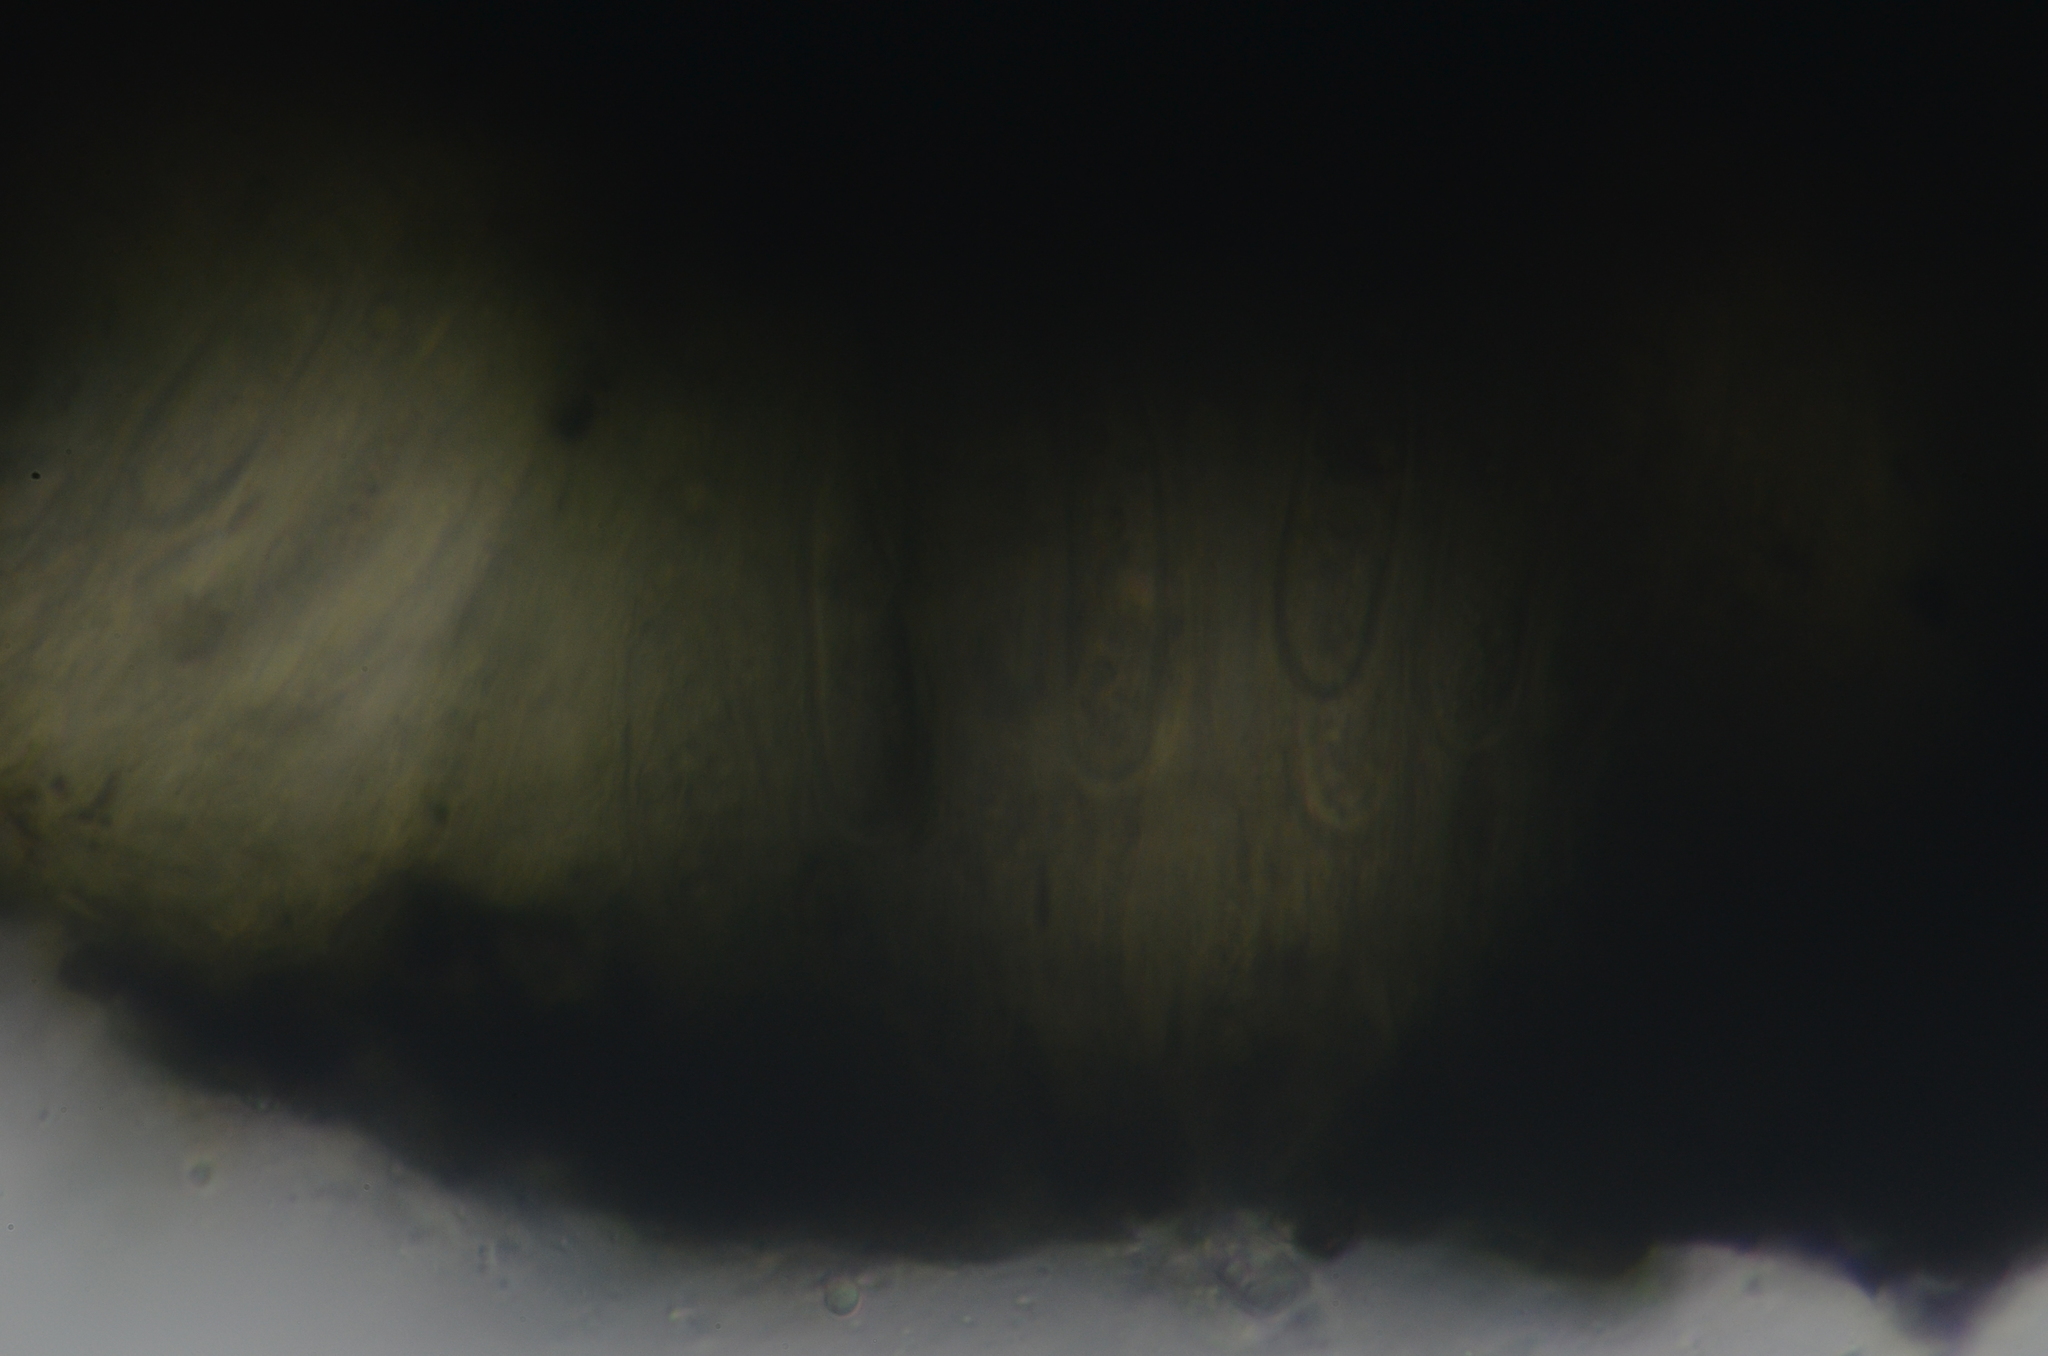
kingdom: Fungi
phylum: Ascomycota
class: Arthoniomycetes
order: Arthoniales
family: Lecanographaceae
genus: Plectocarpon
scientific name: Plectocarpon lichenum
